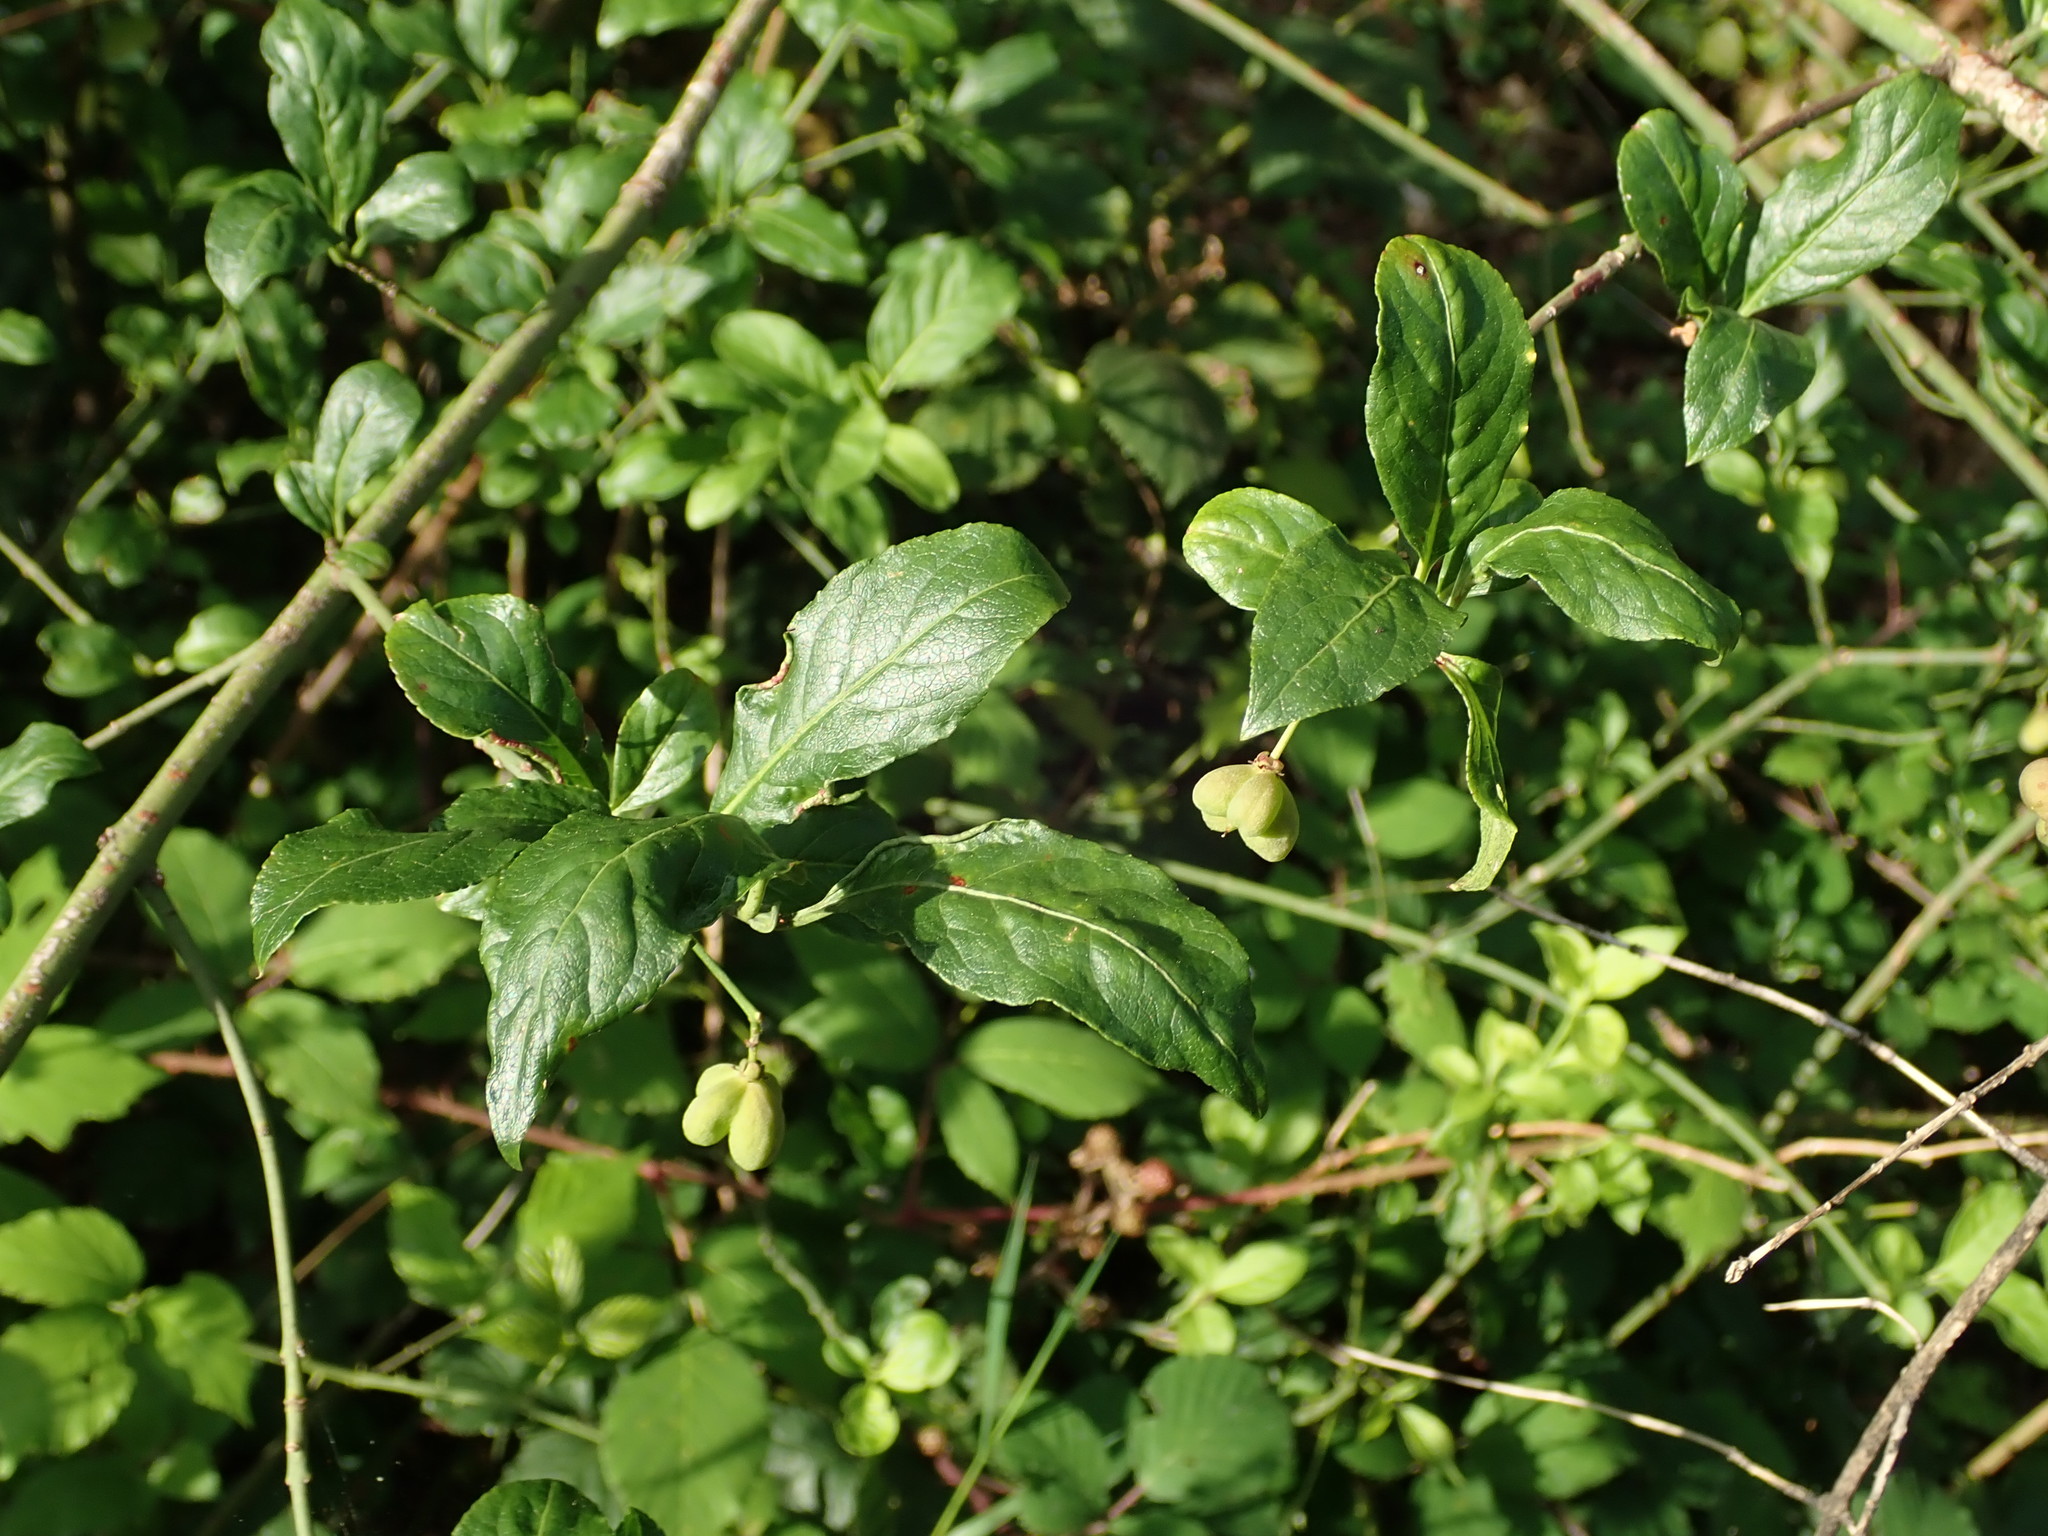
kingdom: Plantae
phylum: Tracheophyta
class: Magnoliopsida
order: Celastrales
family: Celastraceae
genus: Euonymus
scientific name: Euonymus europaeus
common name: Spindle
